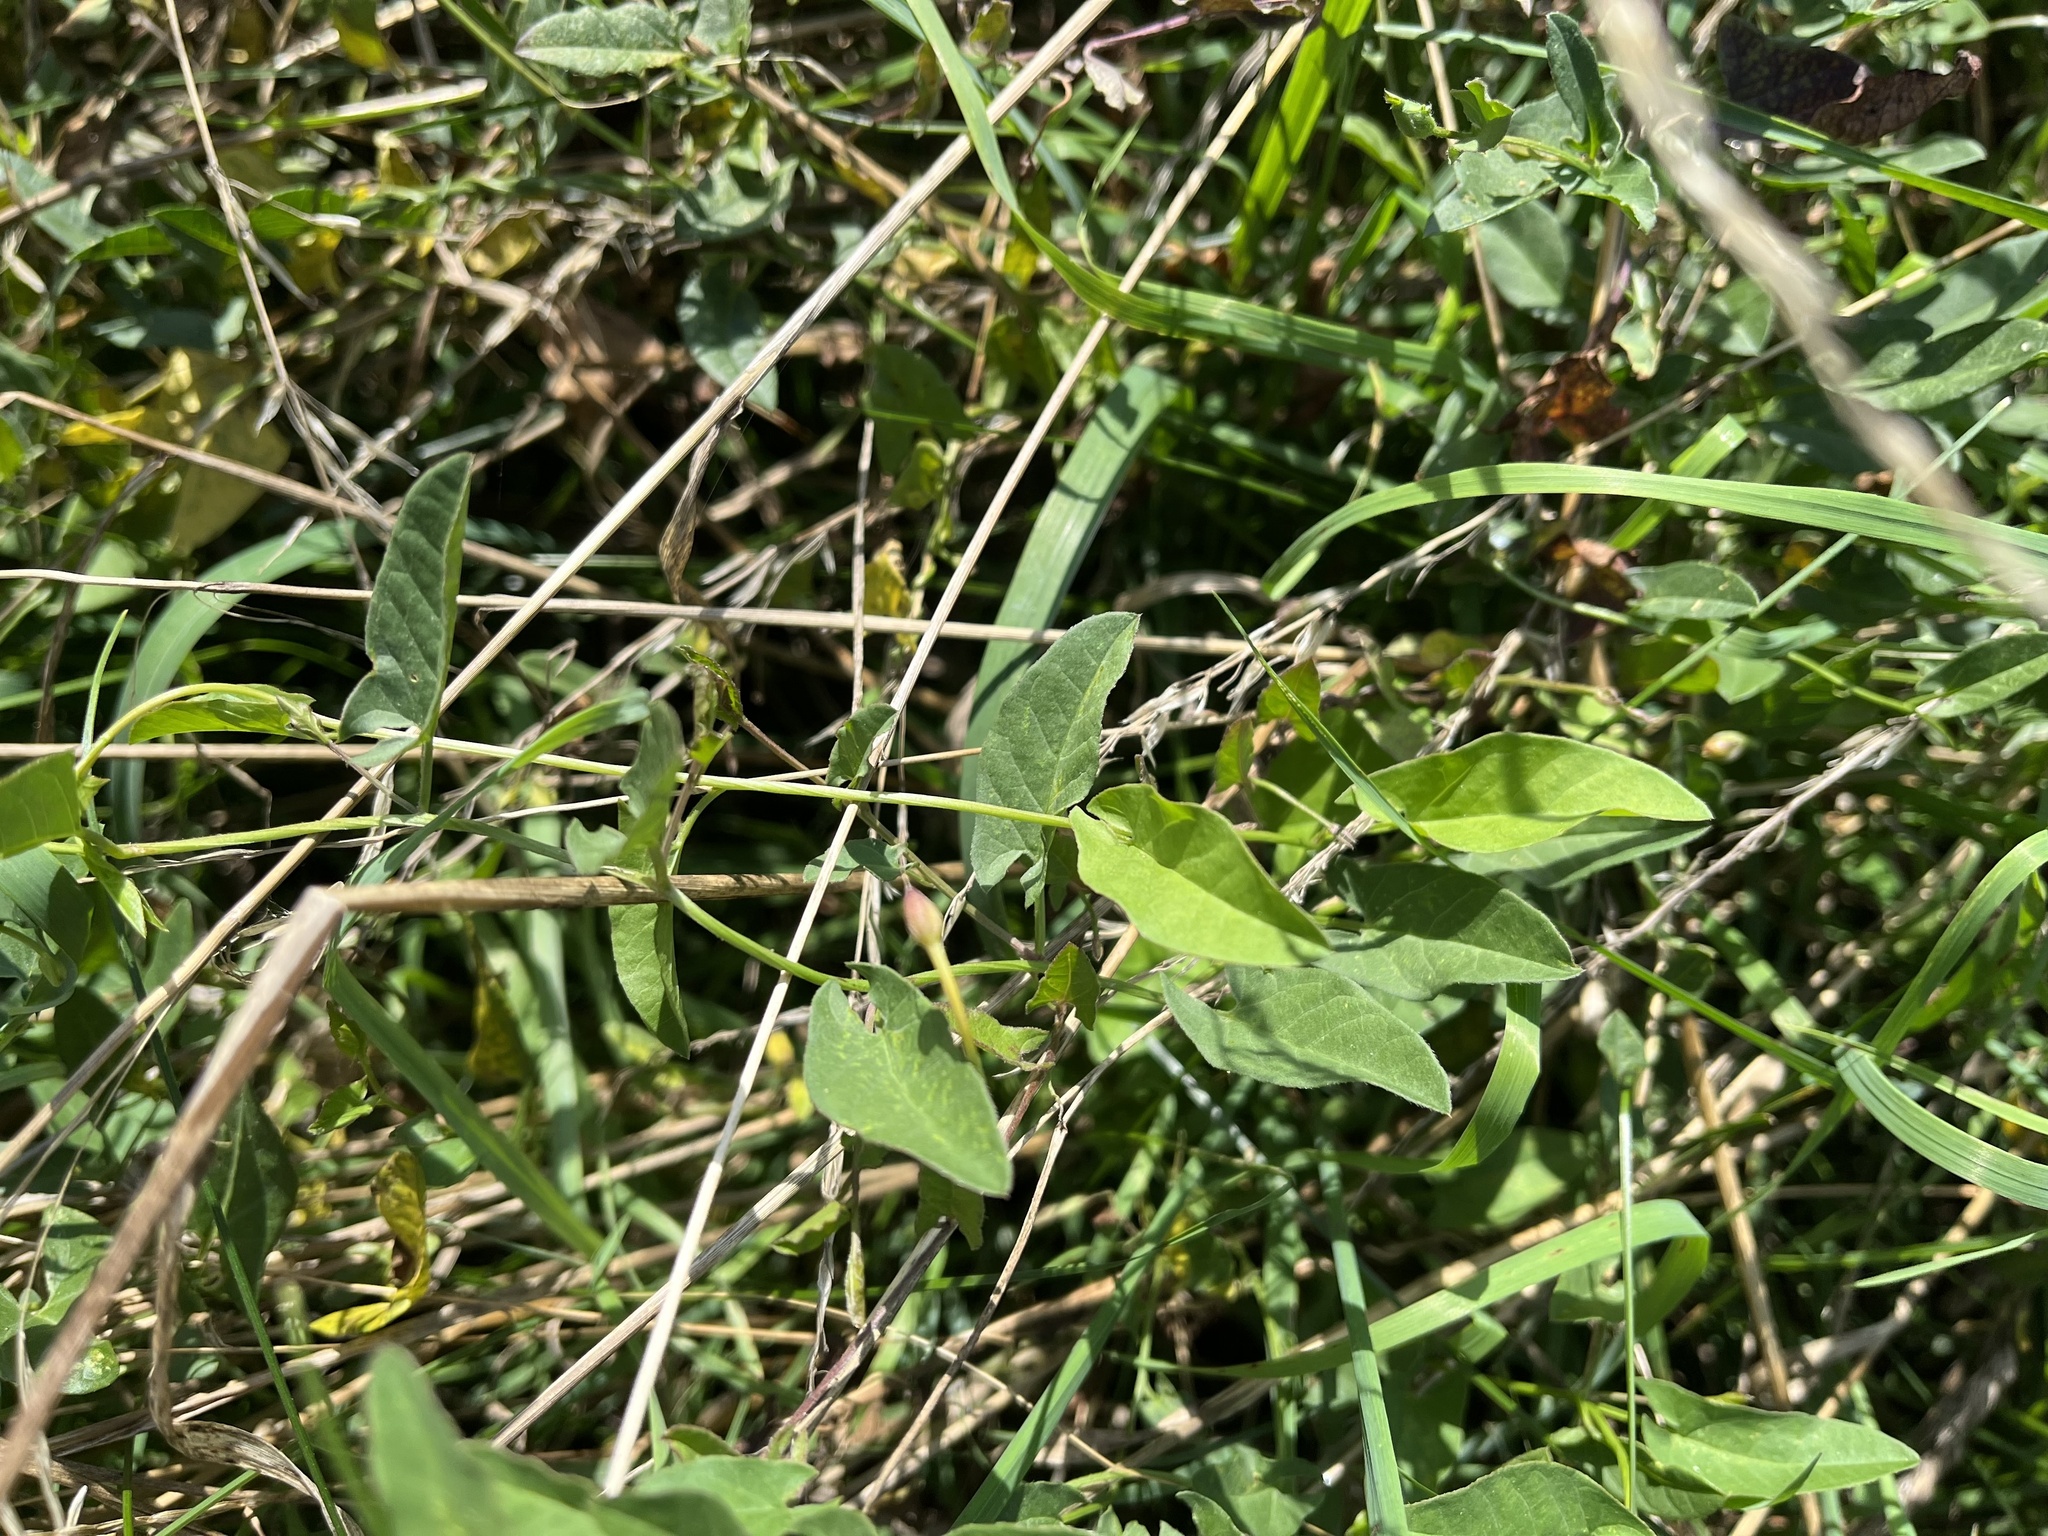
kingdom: Plantae
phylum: Tracheophyta
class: Magnoliopsida
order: Solanales
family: Convolvulaceae
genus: Convolvulus
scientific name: Convolvulus arvensis
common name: Field bindweed
